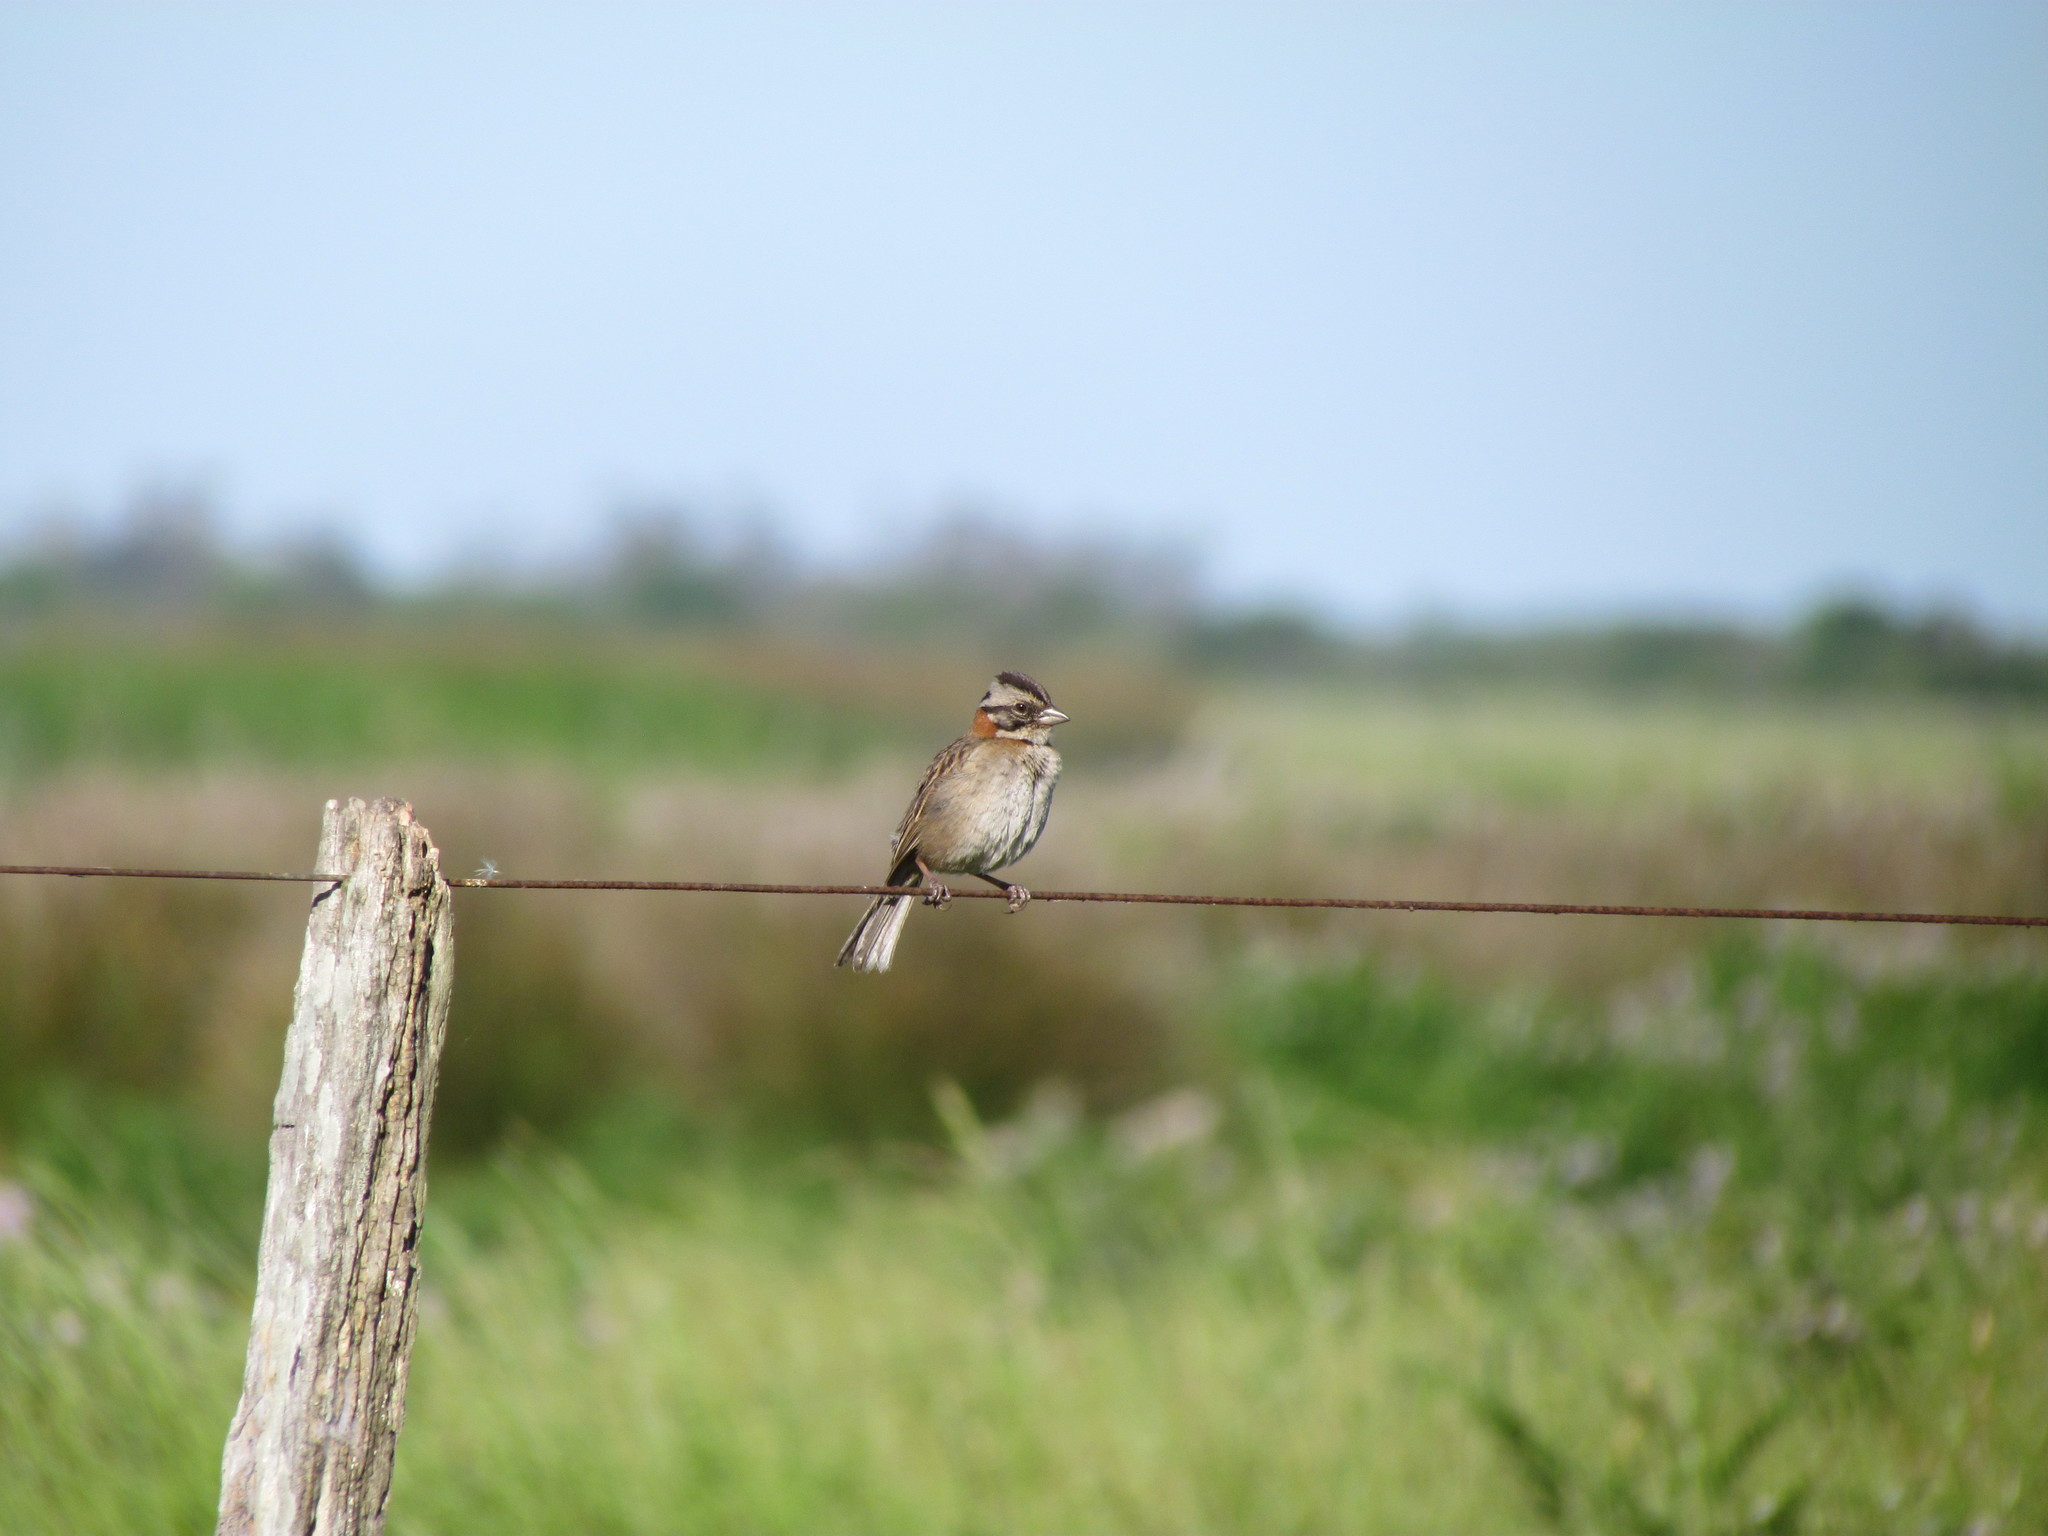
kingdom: Animalia
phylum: Chordata
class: Aves
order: Passeriformes
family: Passerellidae
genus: Zonotrichia
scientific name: Zonotrichia capensis
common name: Rufous-collared sparrow
